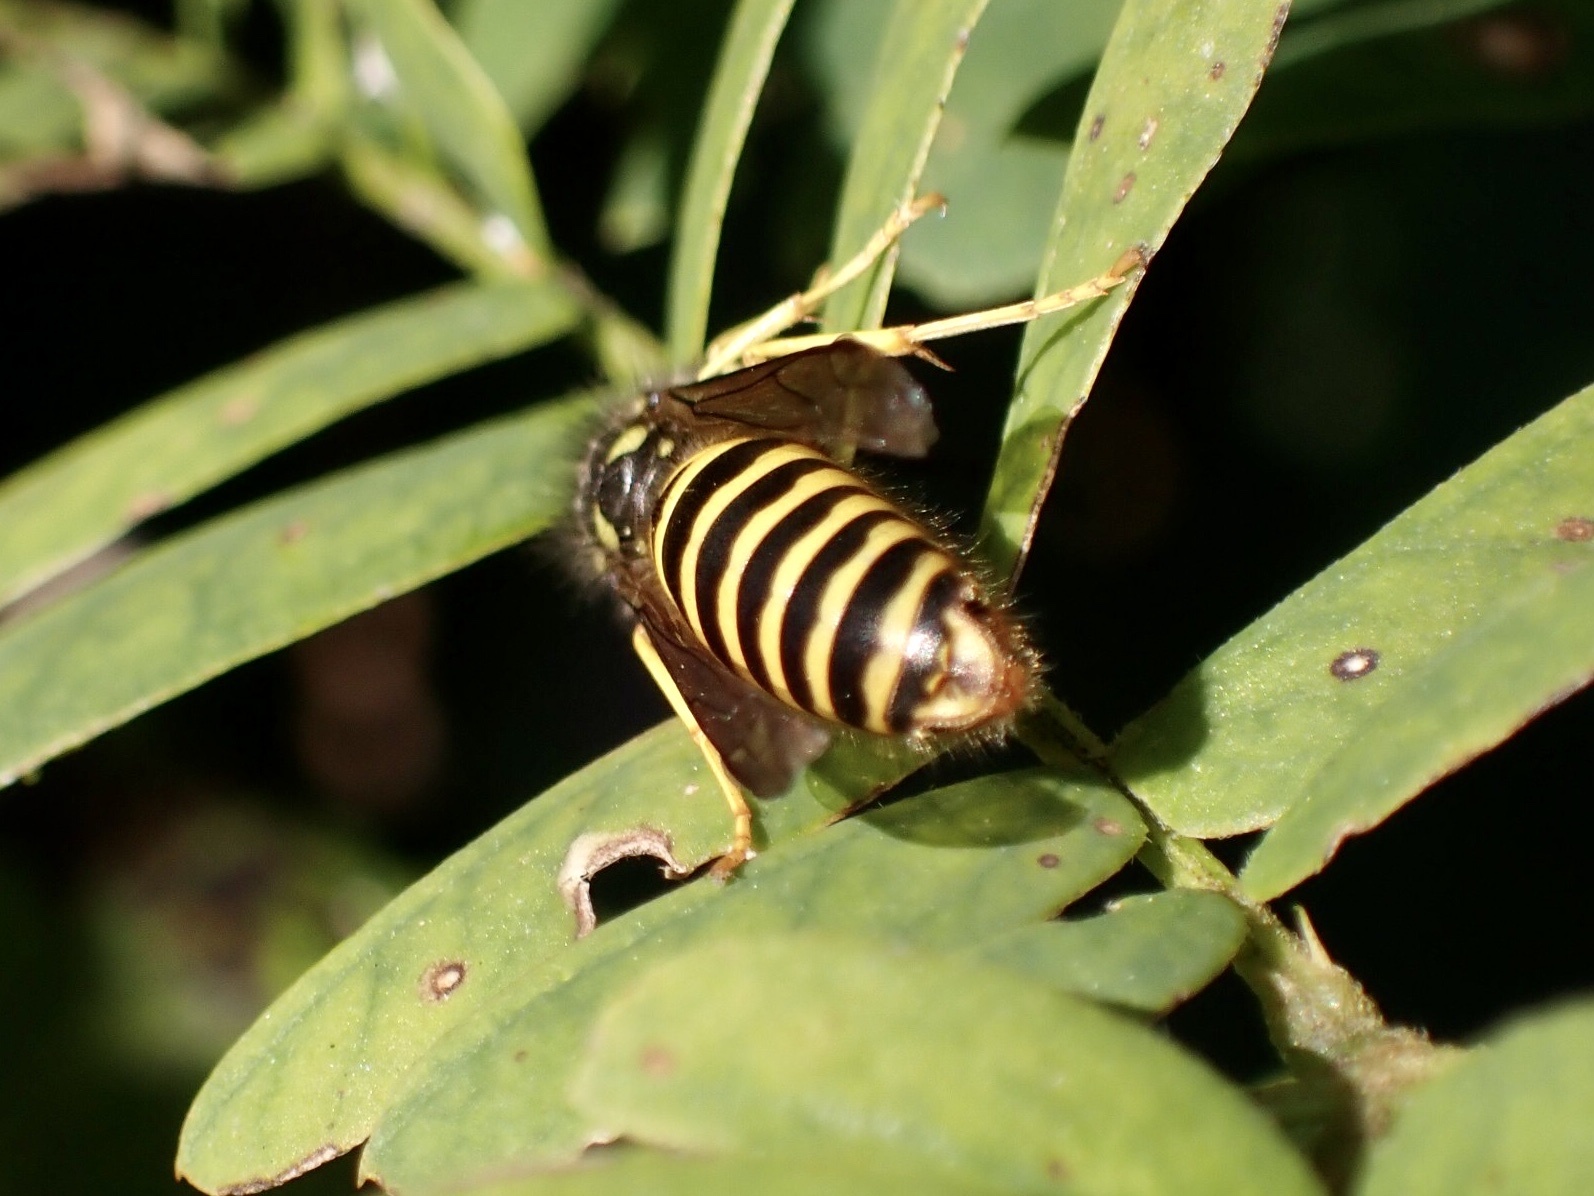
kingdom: Animalia
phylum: Arthropoda
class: Insecta
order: Hymenoptera
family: Vespidae
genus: Vespula
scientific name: Vespula maculifrons
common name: Eastern yellowjacket
